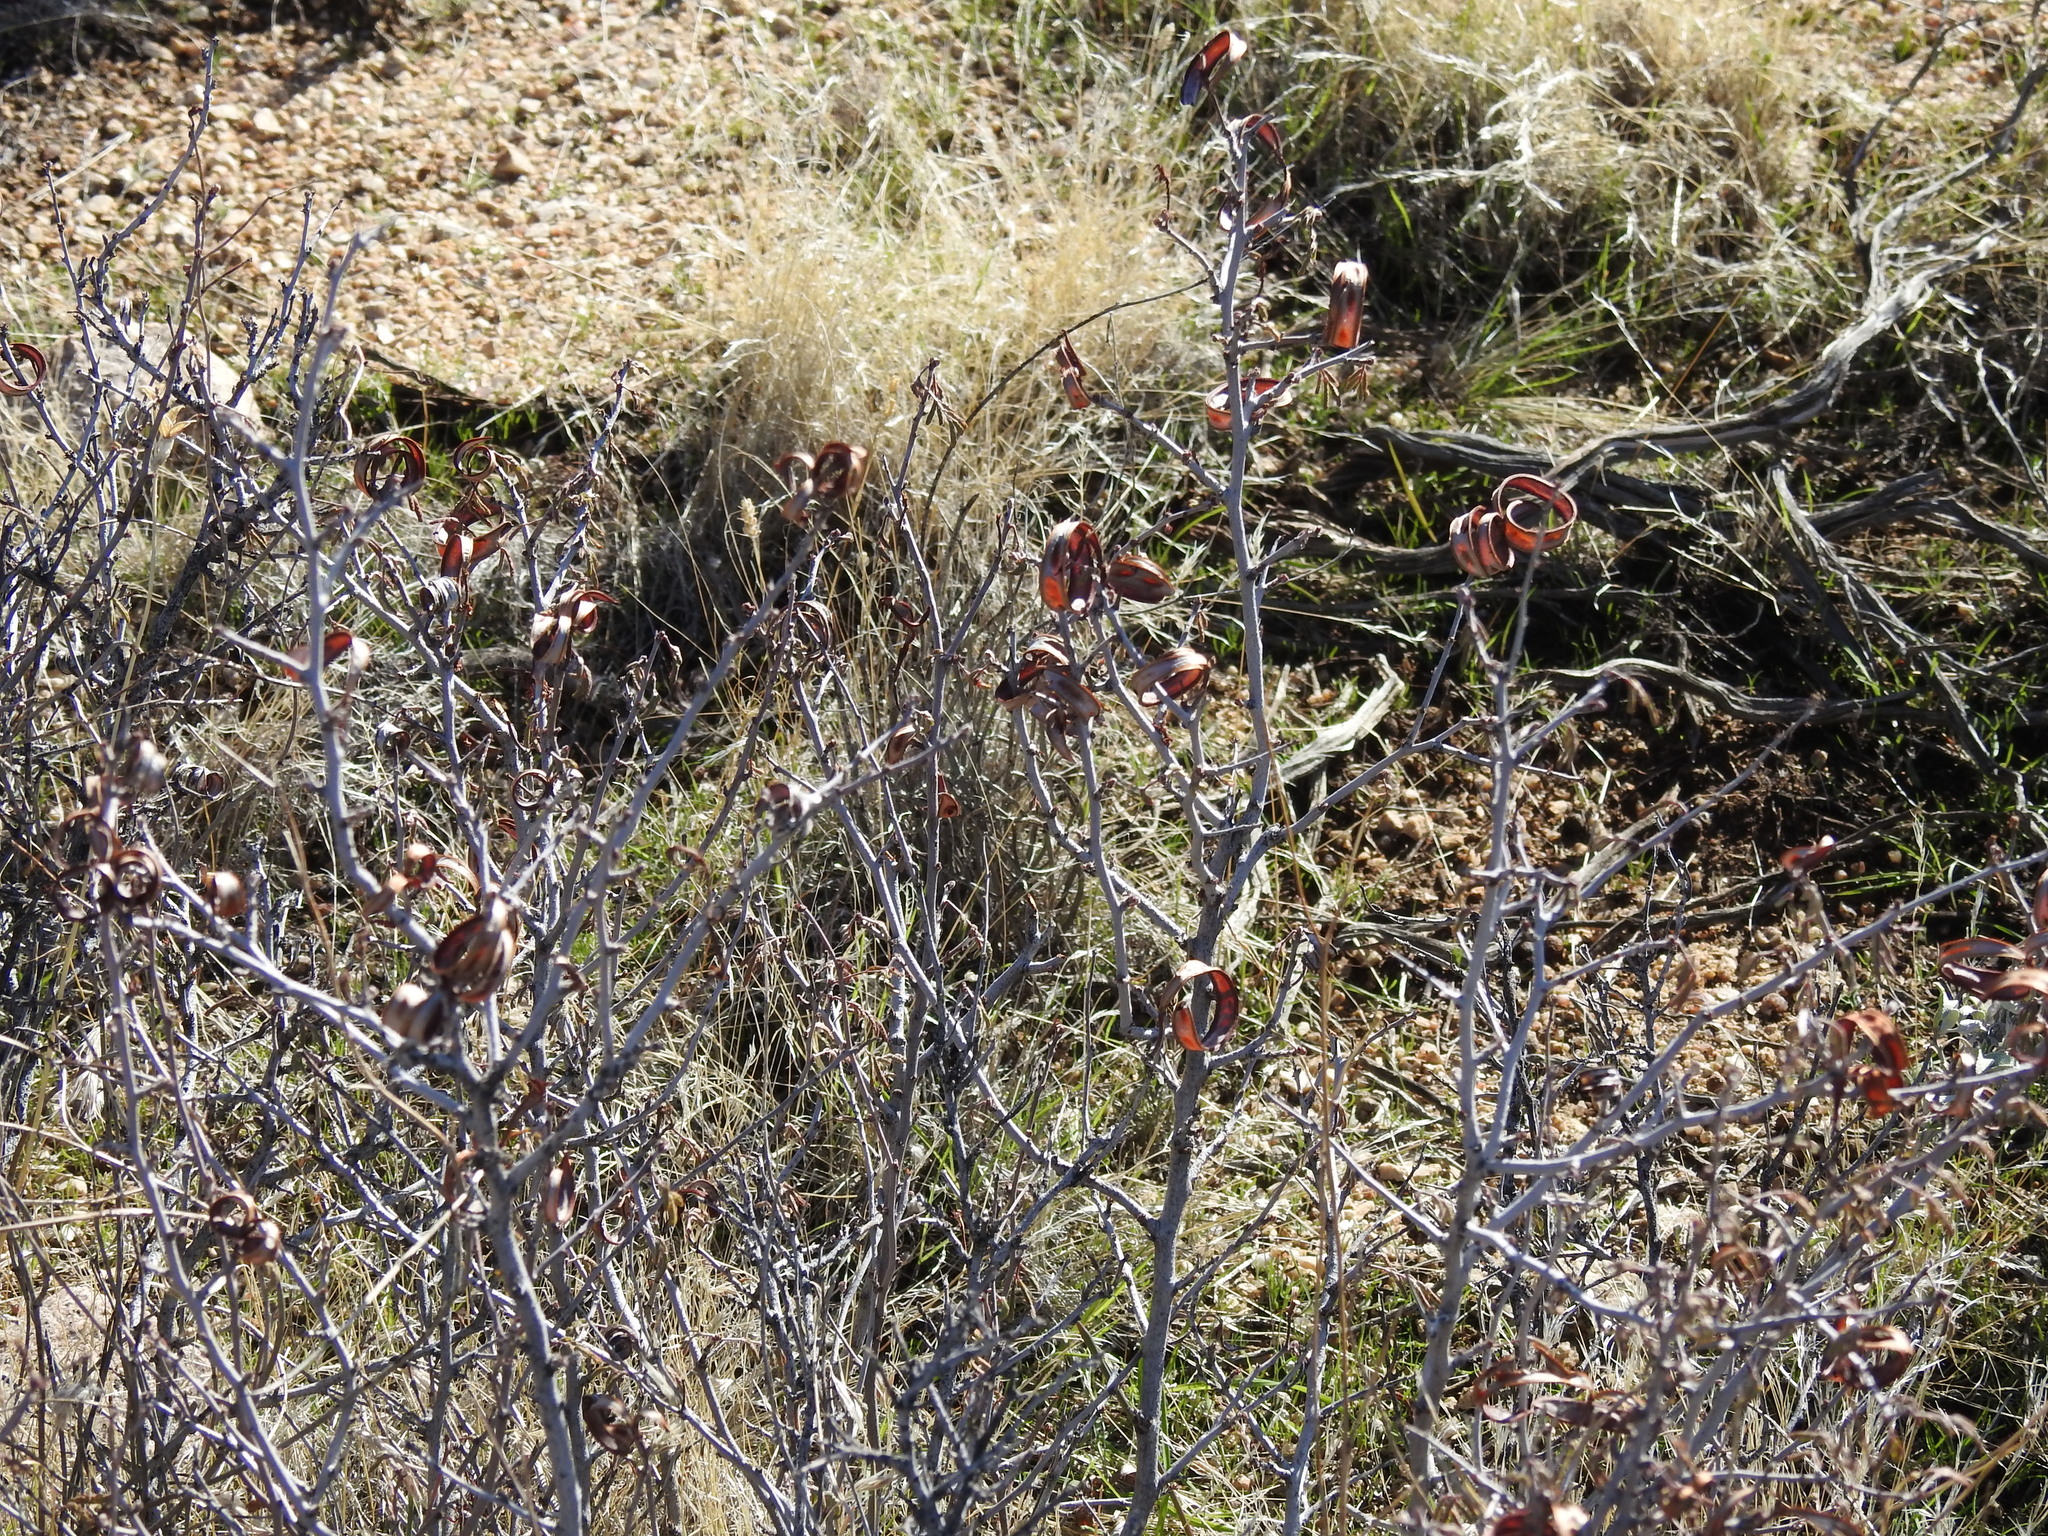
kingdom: Plantae
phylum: Tracheophyta
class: Magnoliopsida
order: Fabales
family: Fabaceae
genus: Calliandra
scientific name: Calliandra eriophylla
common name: Fairy-duster
